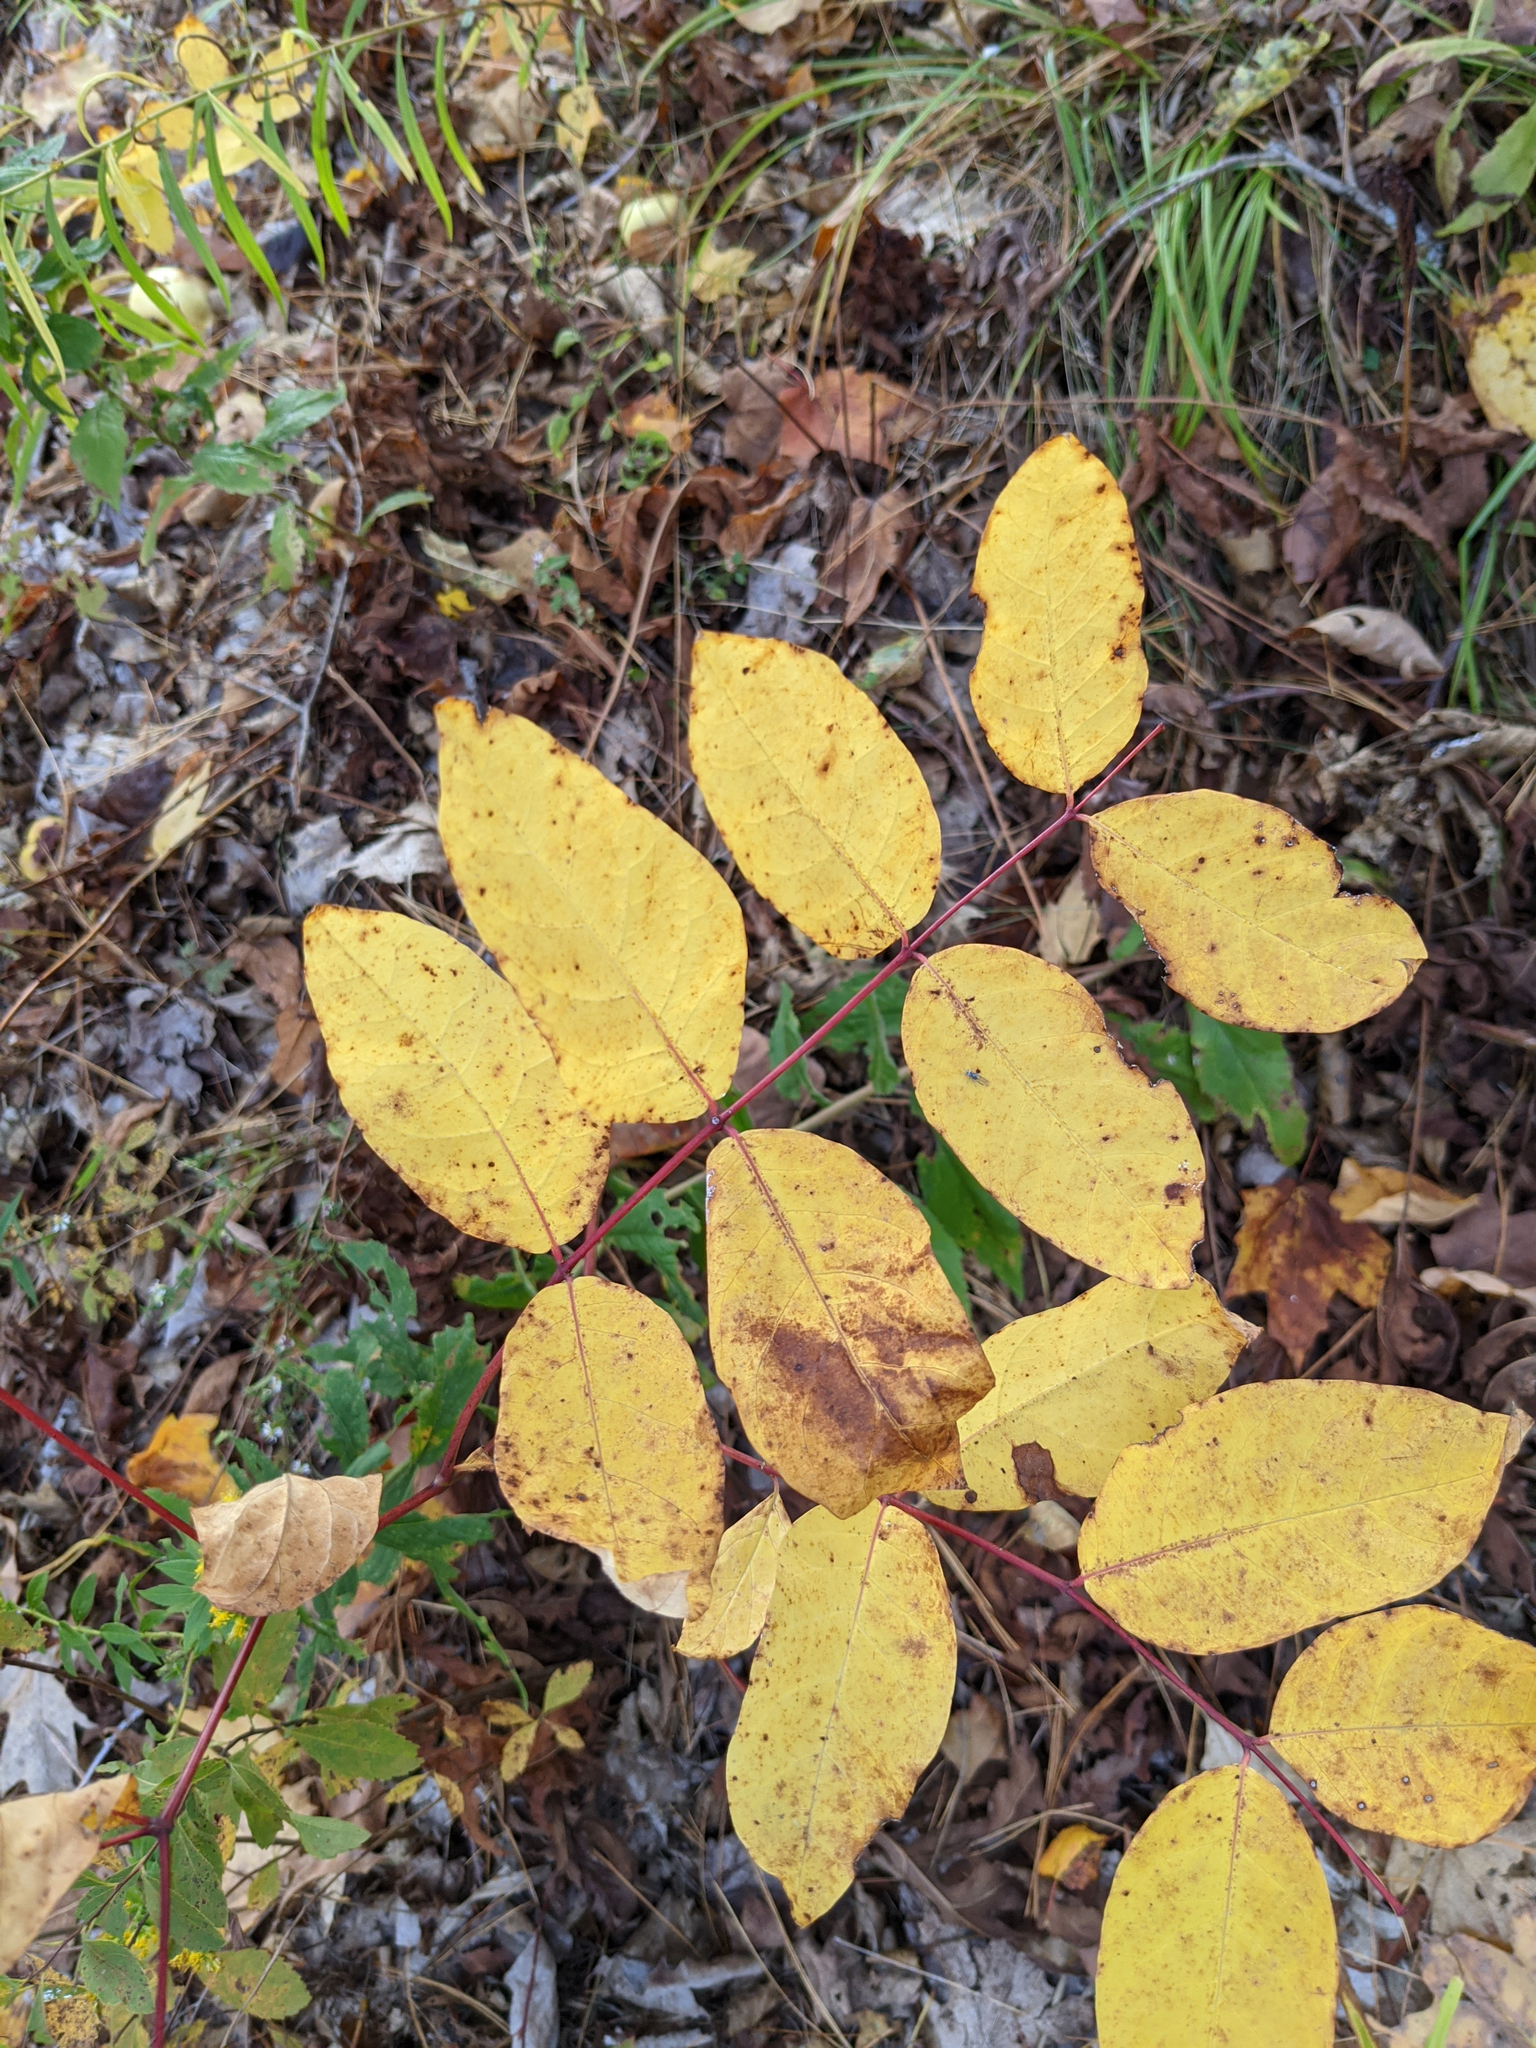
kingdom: Plantae
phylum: Tracheophyta
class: Magnoliopsida
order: Gentianales
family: Apocynaceae
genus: Apocynum
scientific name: Apocynum androsaemifolium
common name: Spreading dogbane
